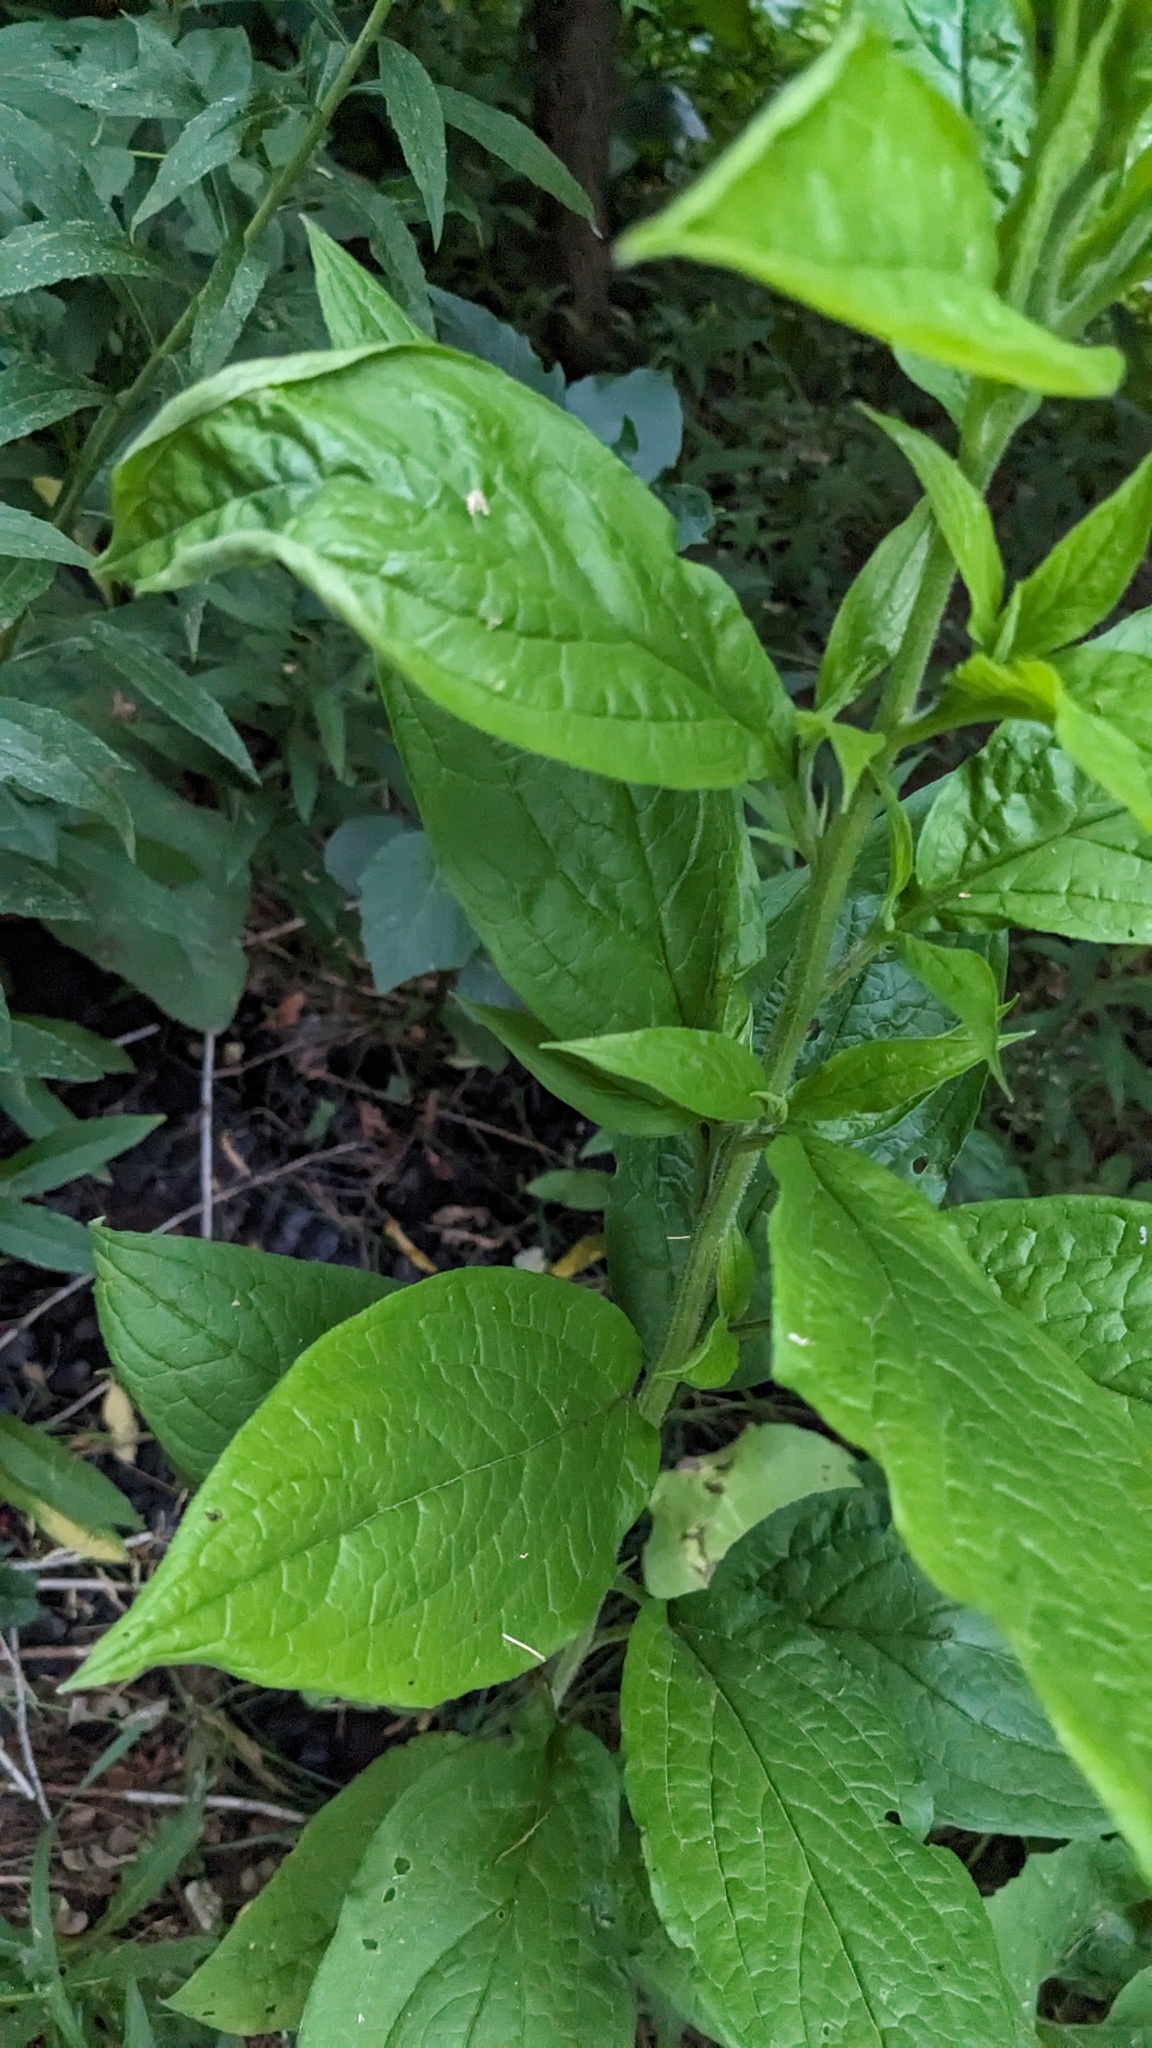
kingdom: Plantae
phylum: Tracheophyta
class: Magnoliopsida
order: Boraginales
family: Boraginaceae
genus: Hackelia
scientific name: Hackelia virginiana
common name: Beggar's-lice
